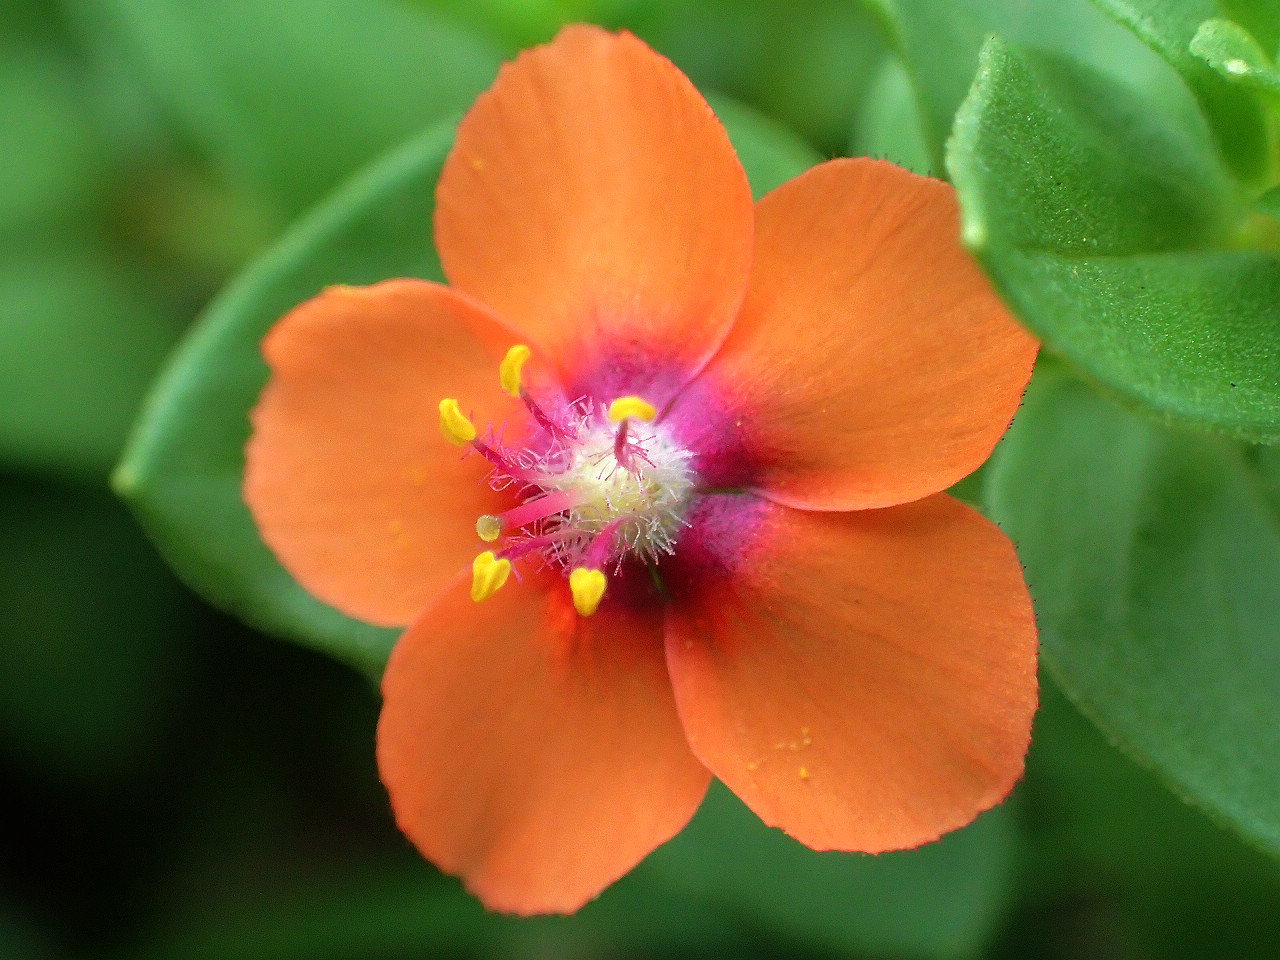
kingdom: Plantae
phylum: Tracheophyta
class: Magnoliopsida
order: Ericales
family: Primulaceae
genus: Lysimachia
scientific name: Lysimachia arvensis
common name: Scarlet pimpernel
